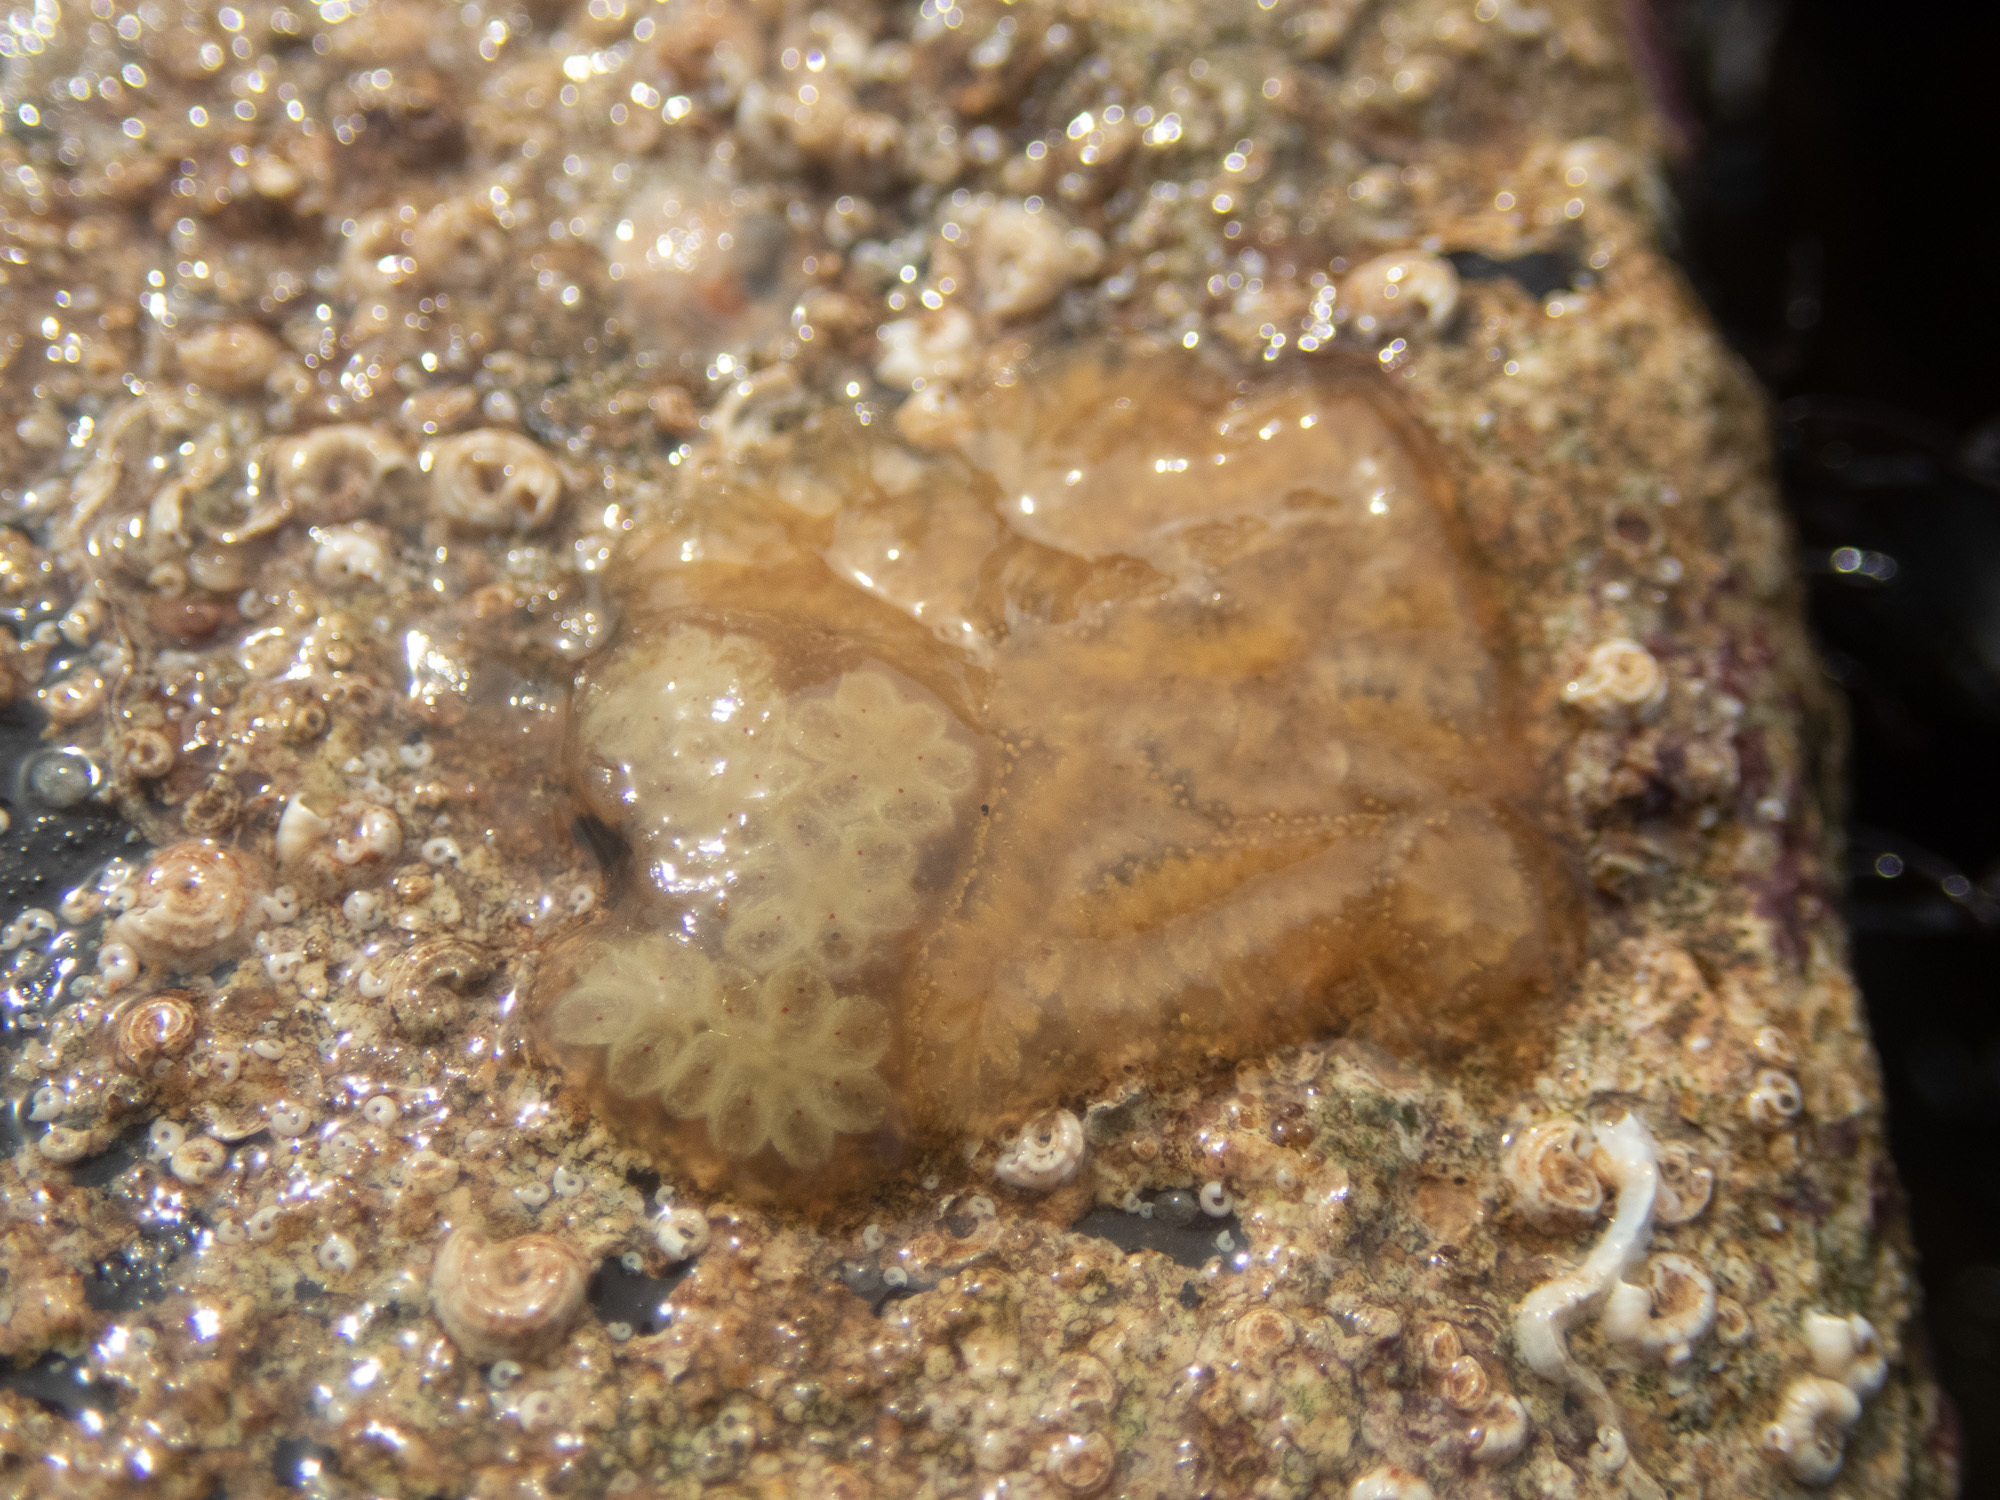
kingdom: Animalia
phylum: Chordata
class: Ascidiacea
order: Stolidobranchia
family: Styelidae
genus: Botrylloides
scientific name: Botrylloides leachii
